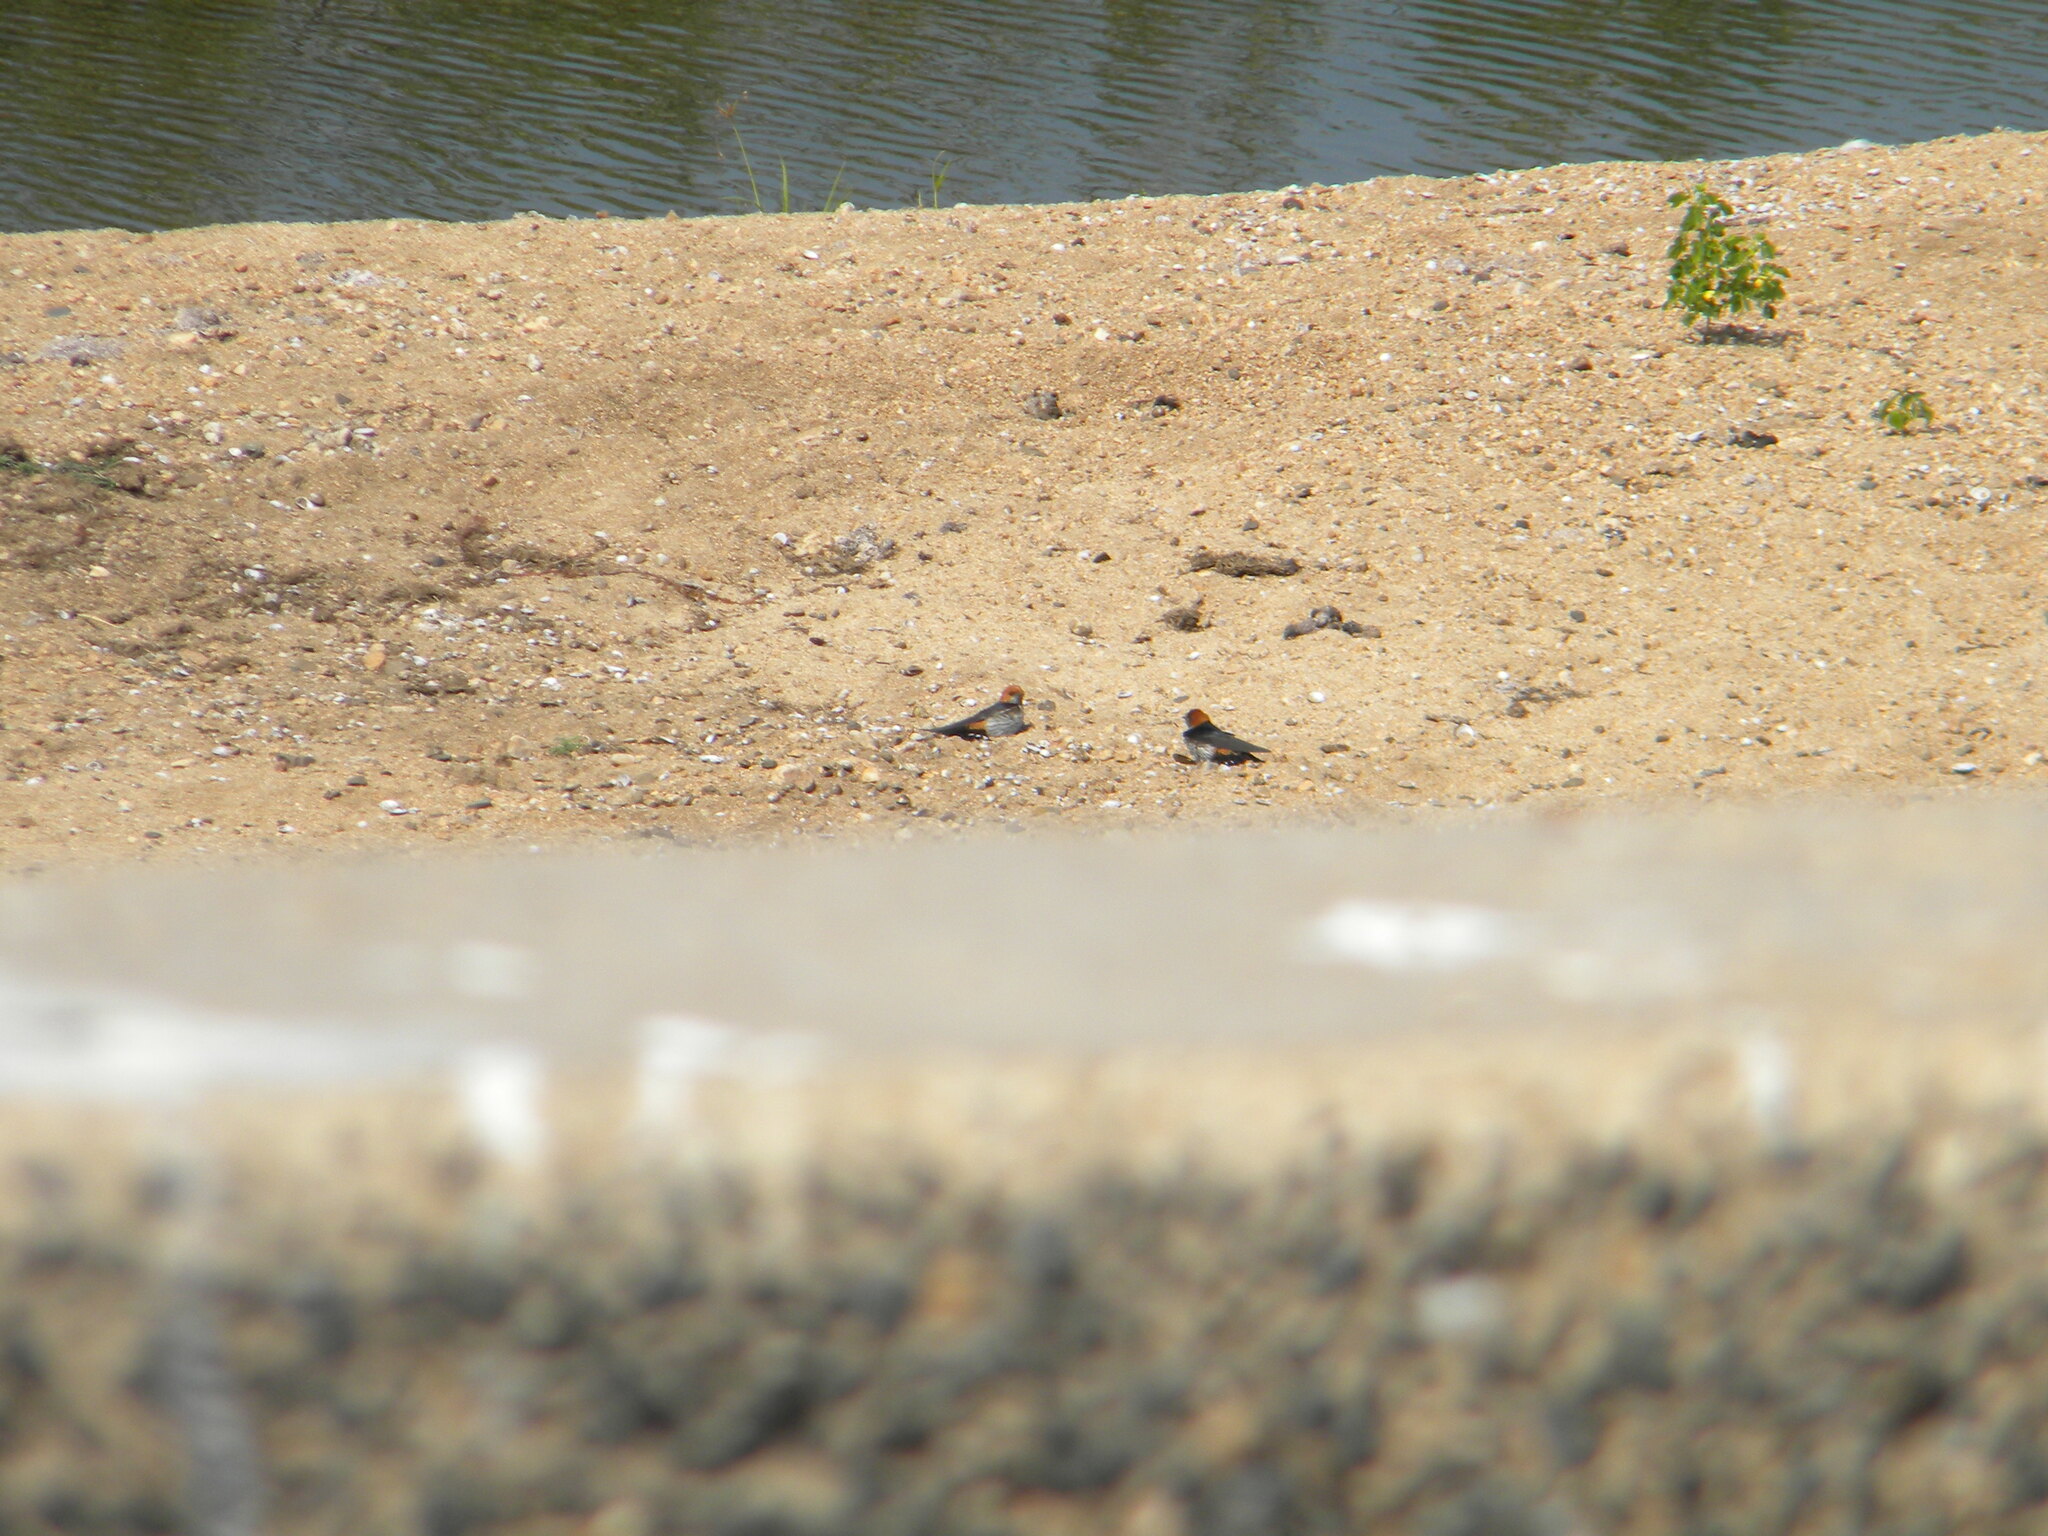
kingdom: Animalia
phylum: Chordata
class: Aves
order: Passeriformes
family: Hirundinidae
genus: Cecropis
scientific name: Cecropis abyssinica
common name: Lesser striped-swallow
